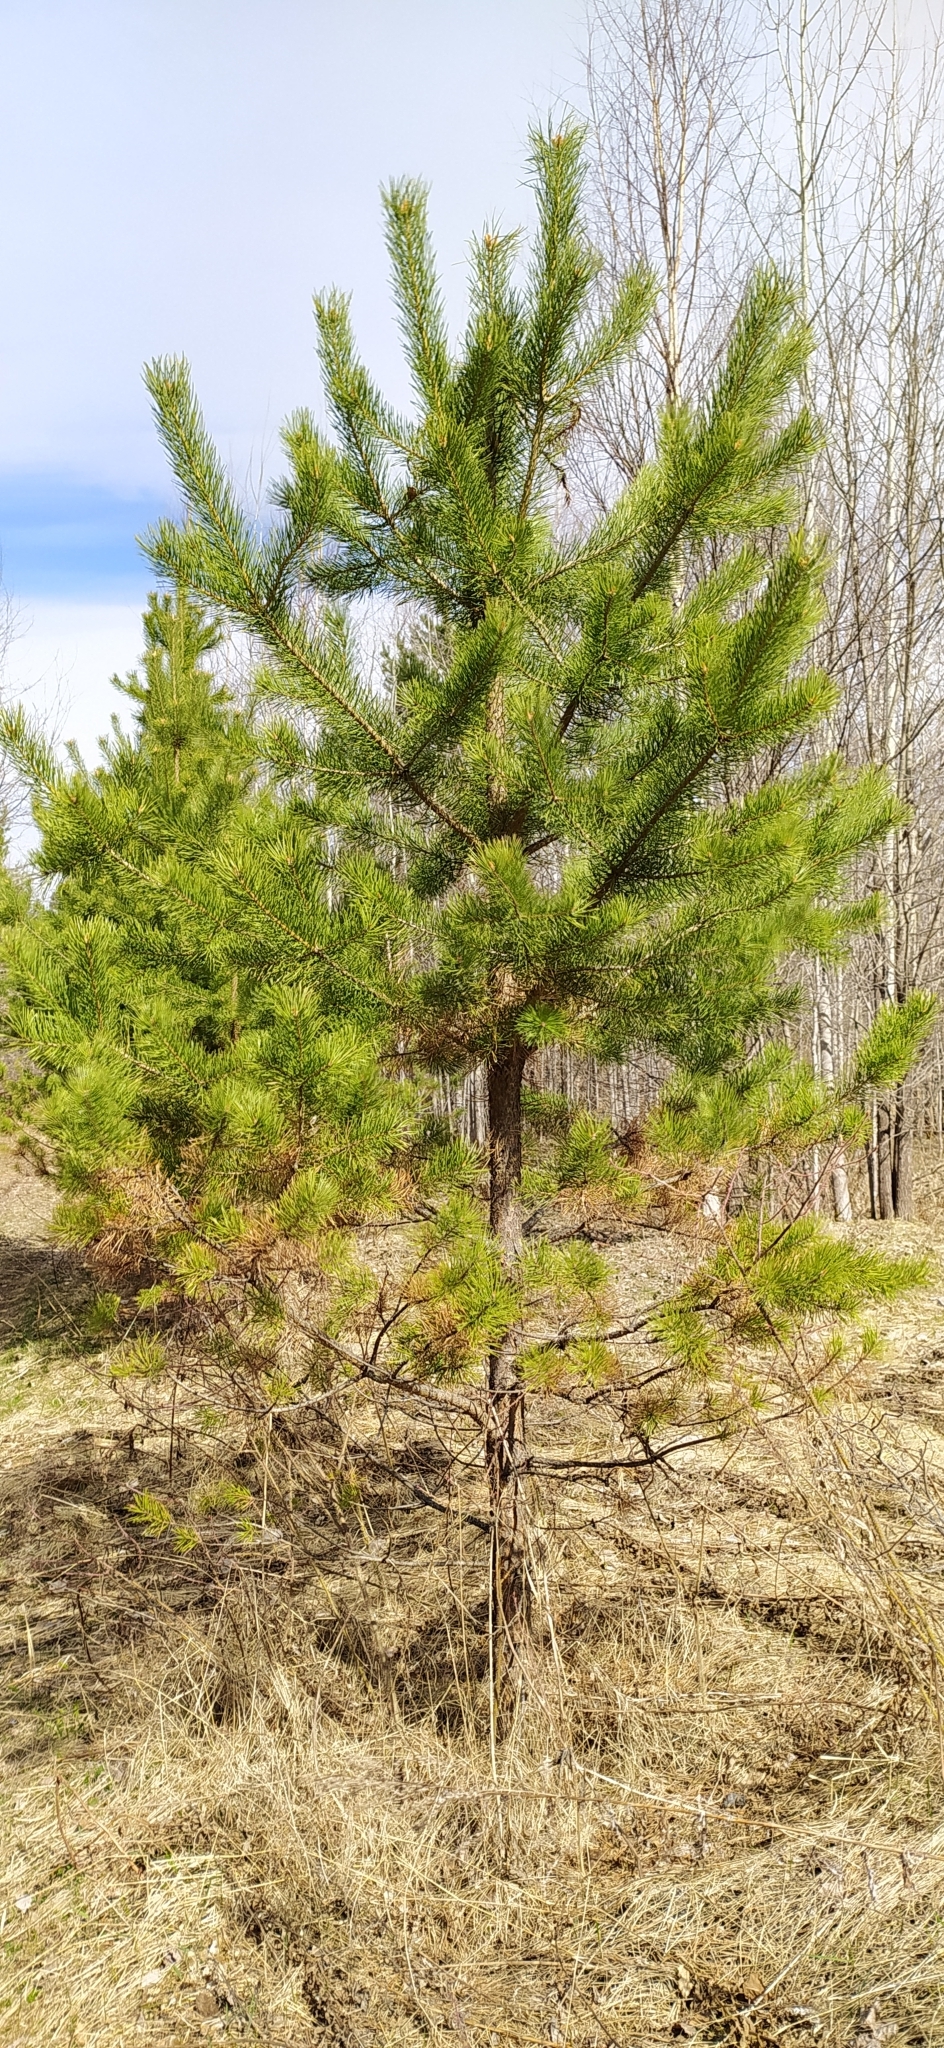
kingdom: Plantae
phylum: Tracheophyta
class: Pinopsida
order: Pinales
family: Pinaceae
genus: Pinus
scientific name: Pinus sylvestris
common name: Scots pine
